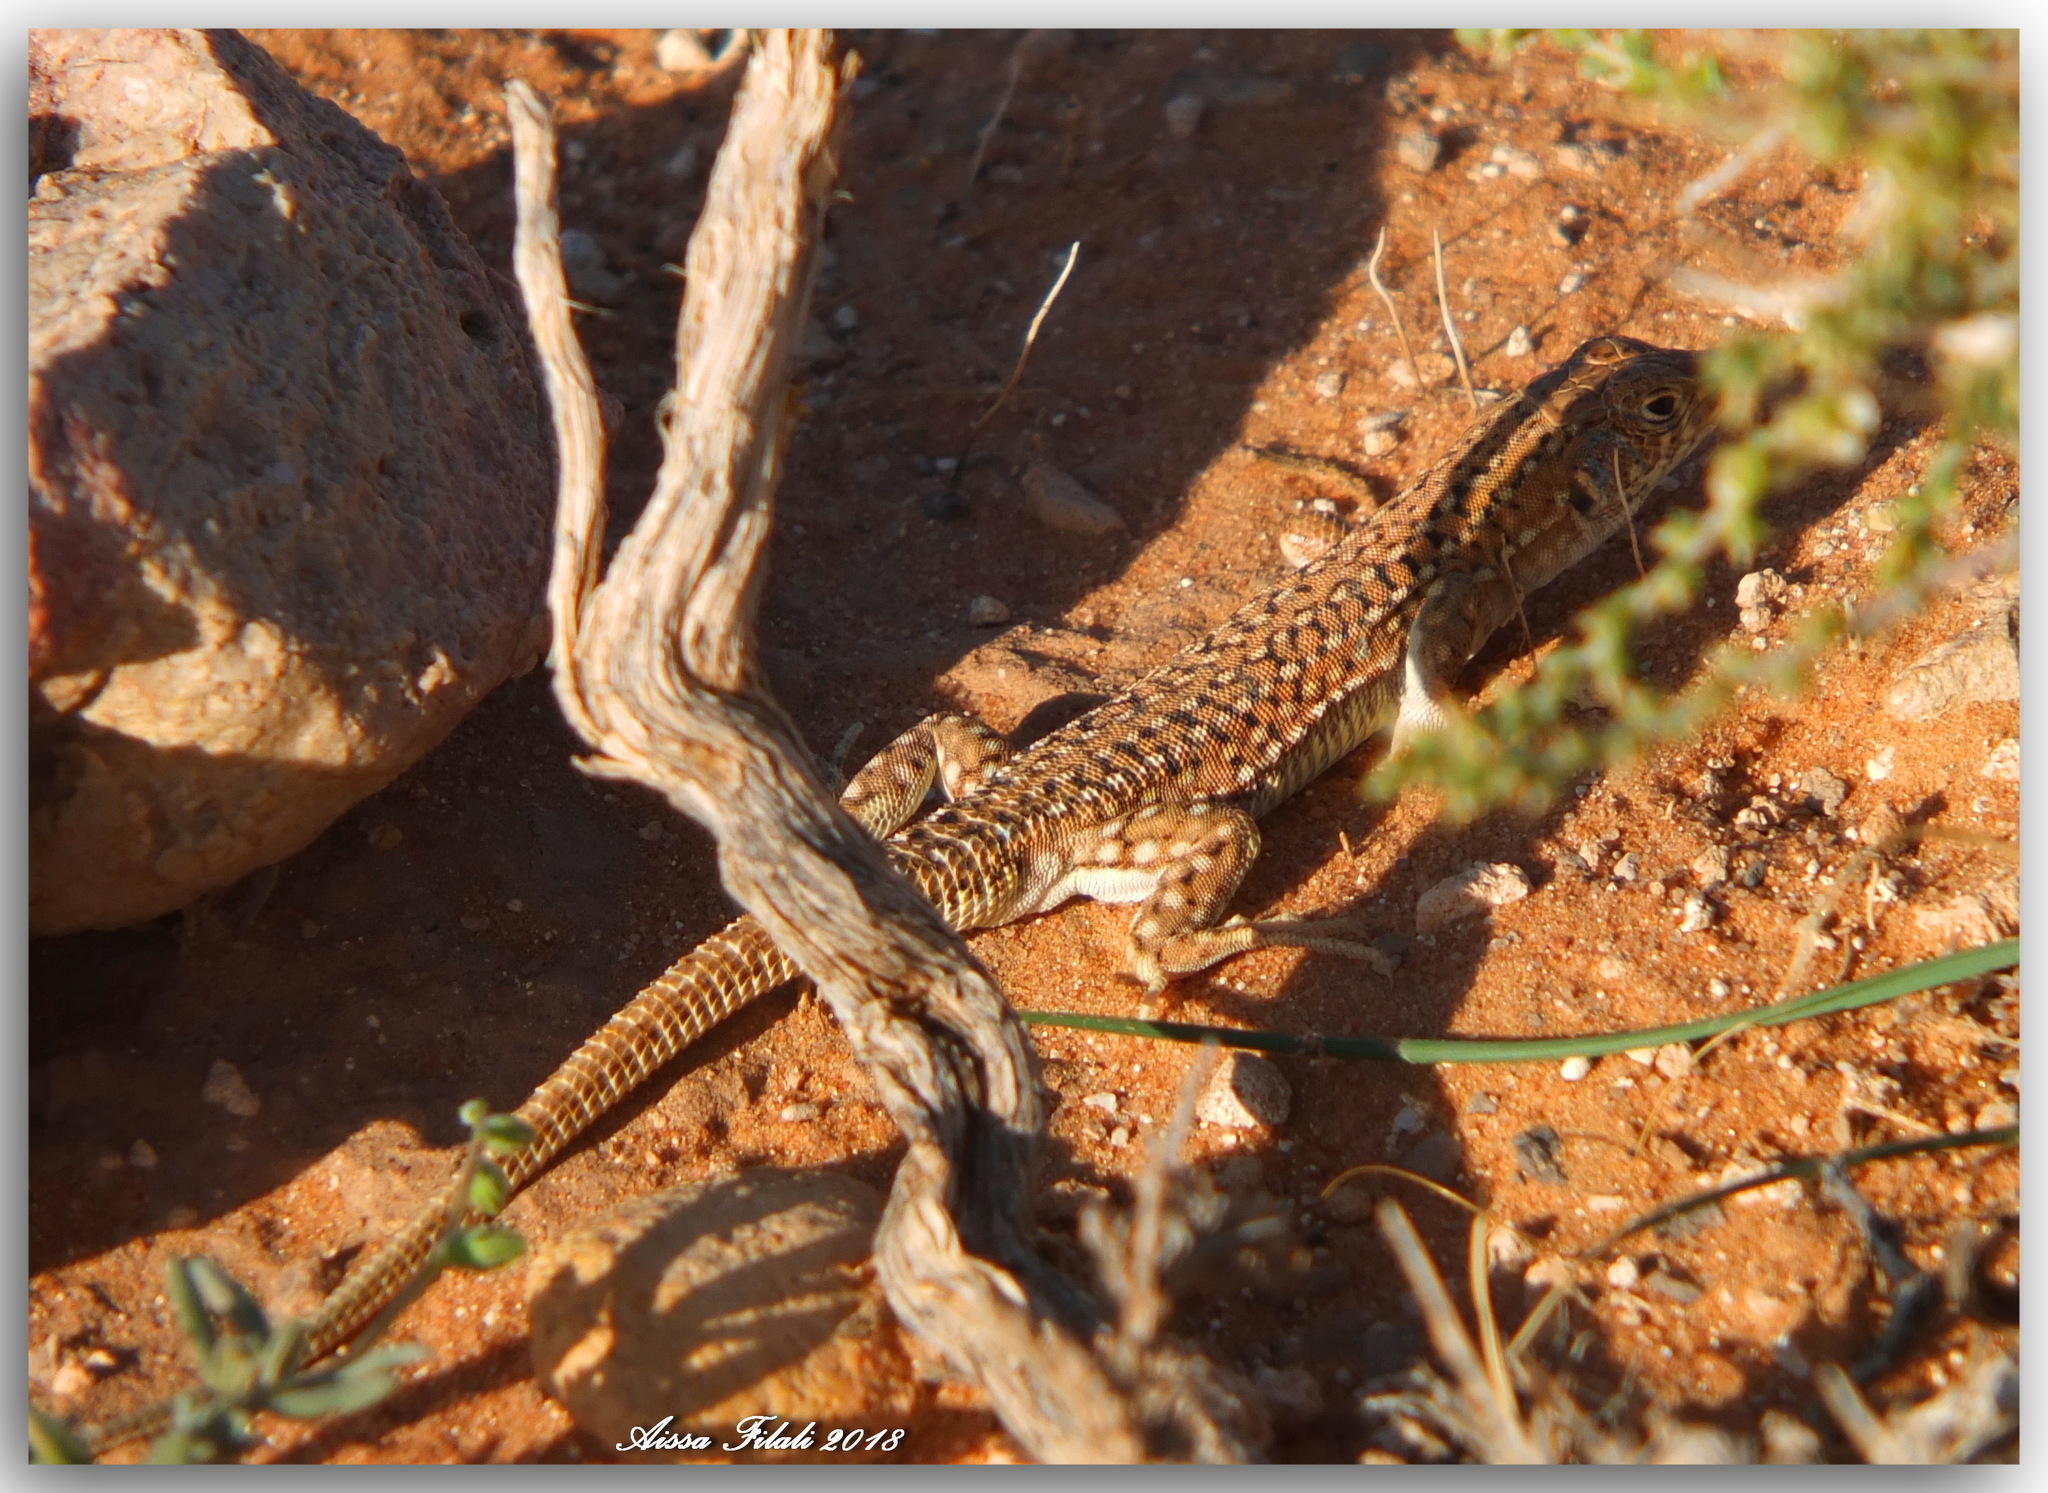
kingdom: Animalia
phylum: Chordata
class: Squamata
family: Lacertidae
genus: Acanthodactylus
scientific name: Acanthodactylus bedriagai
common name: Bedriaga's fringe-fingered lizard
